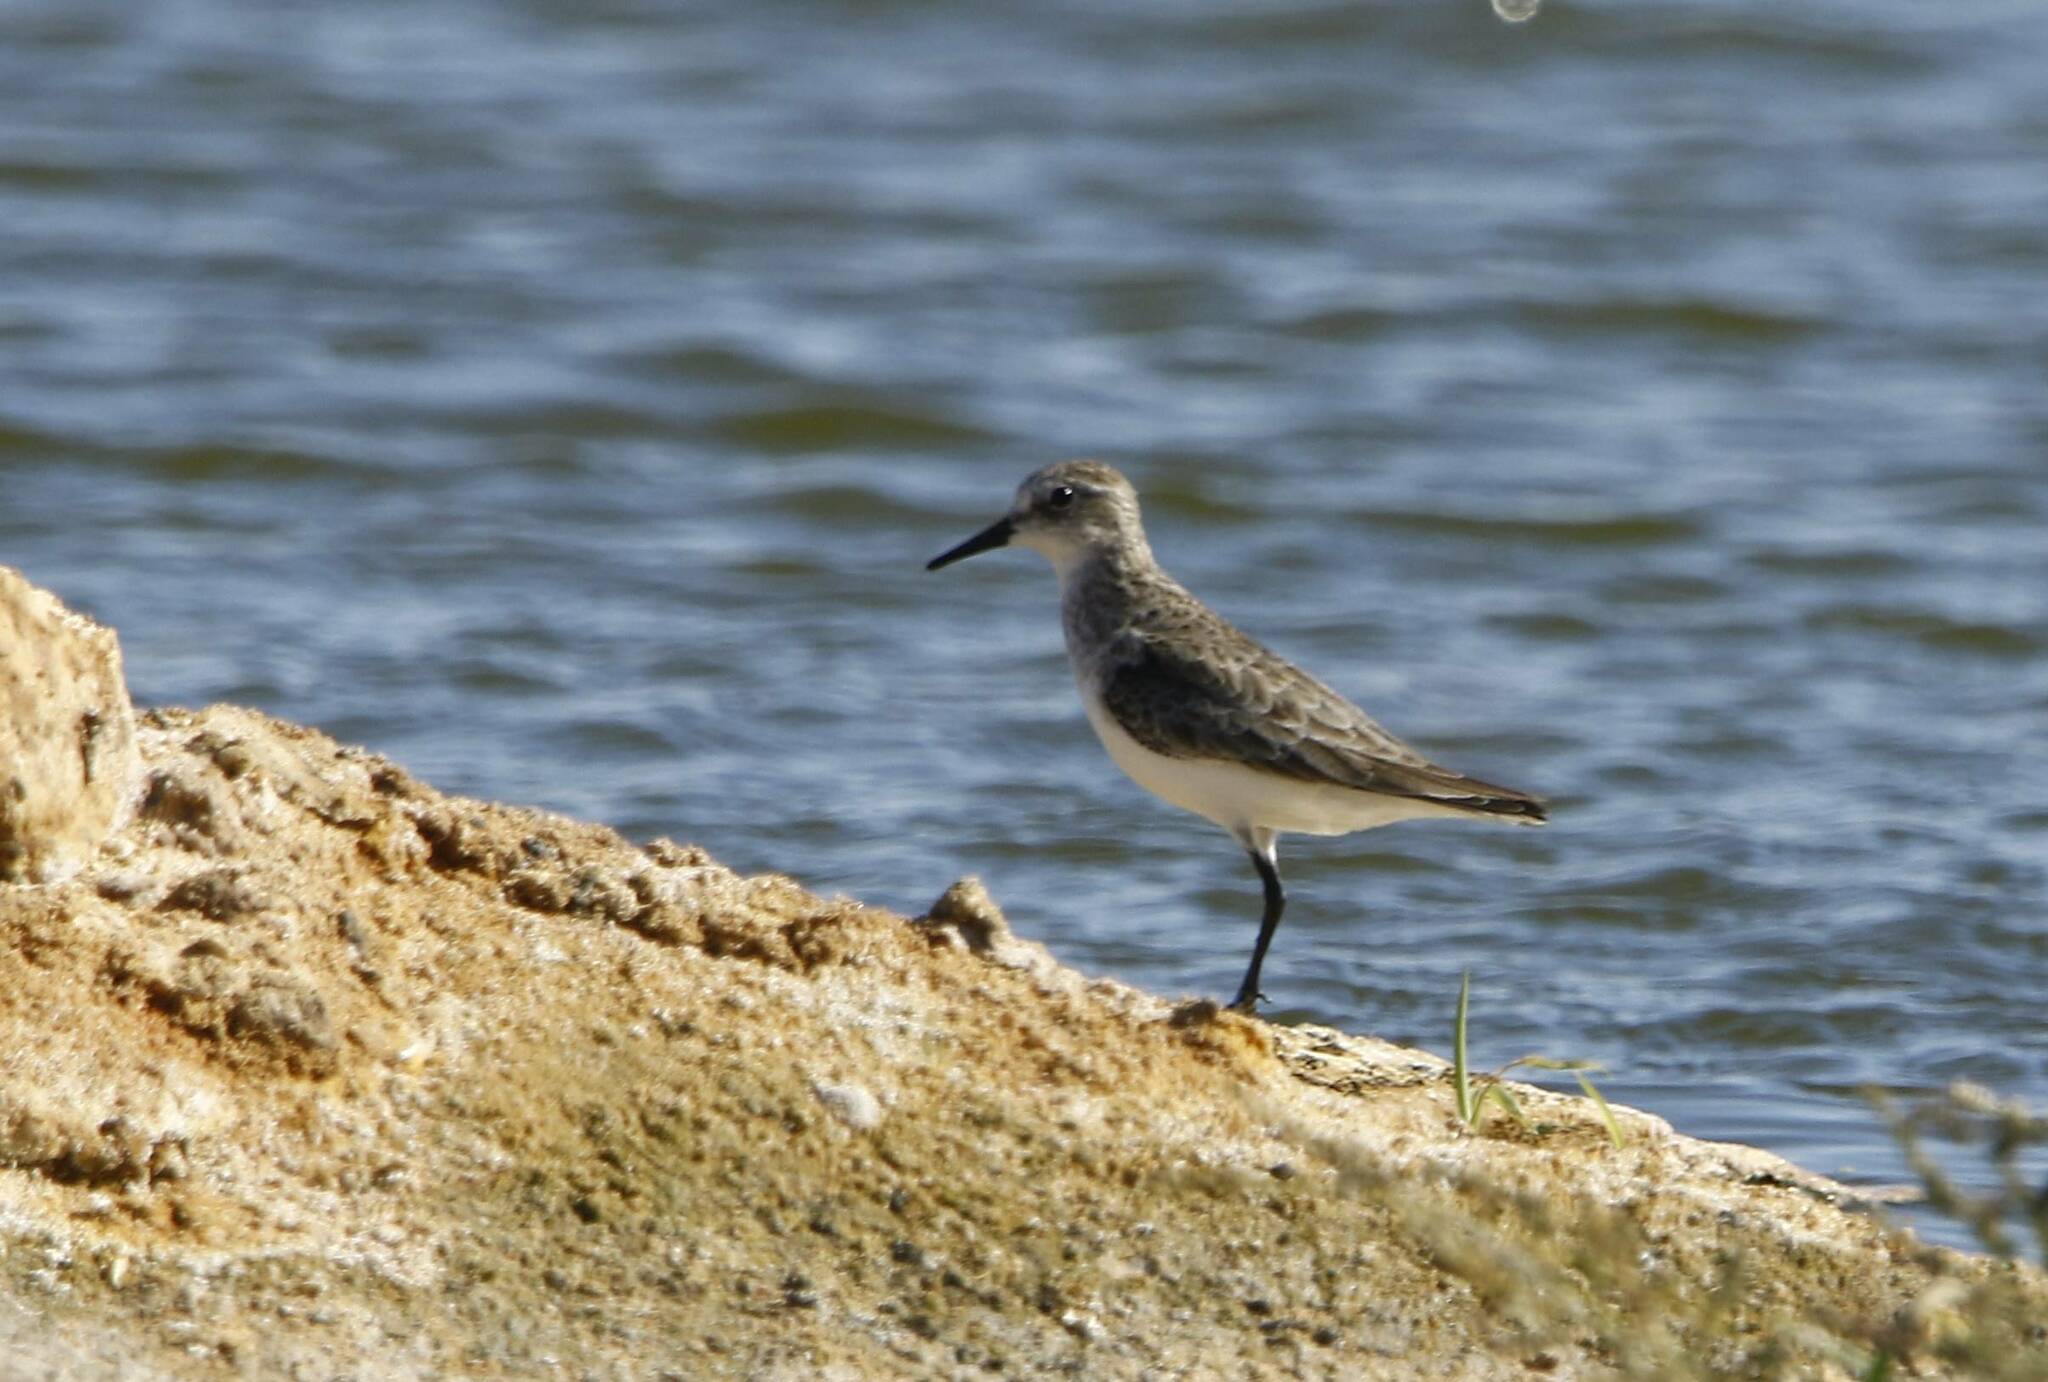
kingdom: Animalia
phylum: Chordata
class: Aves
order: Charadriiformes
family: Scolopacidae
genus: Calidris
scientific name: Calidris minuta
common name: Little stint
